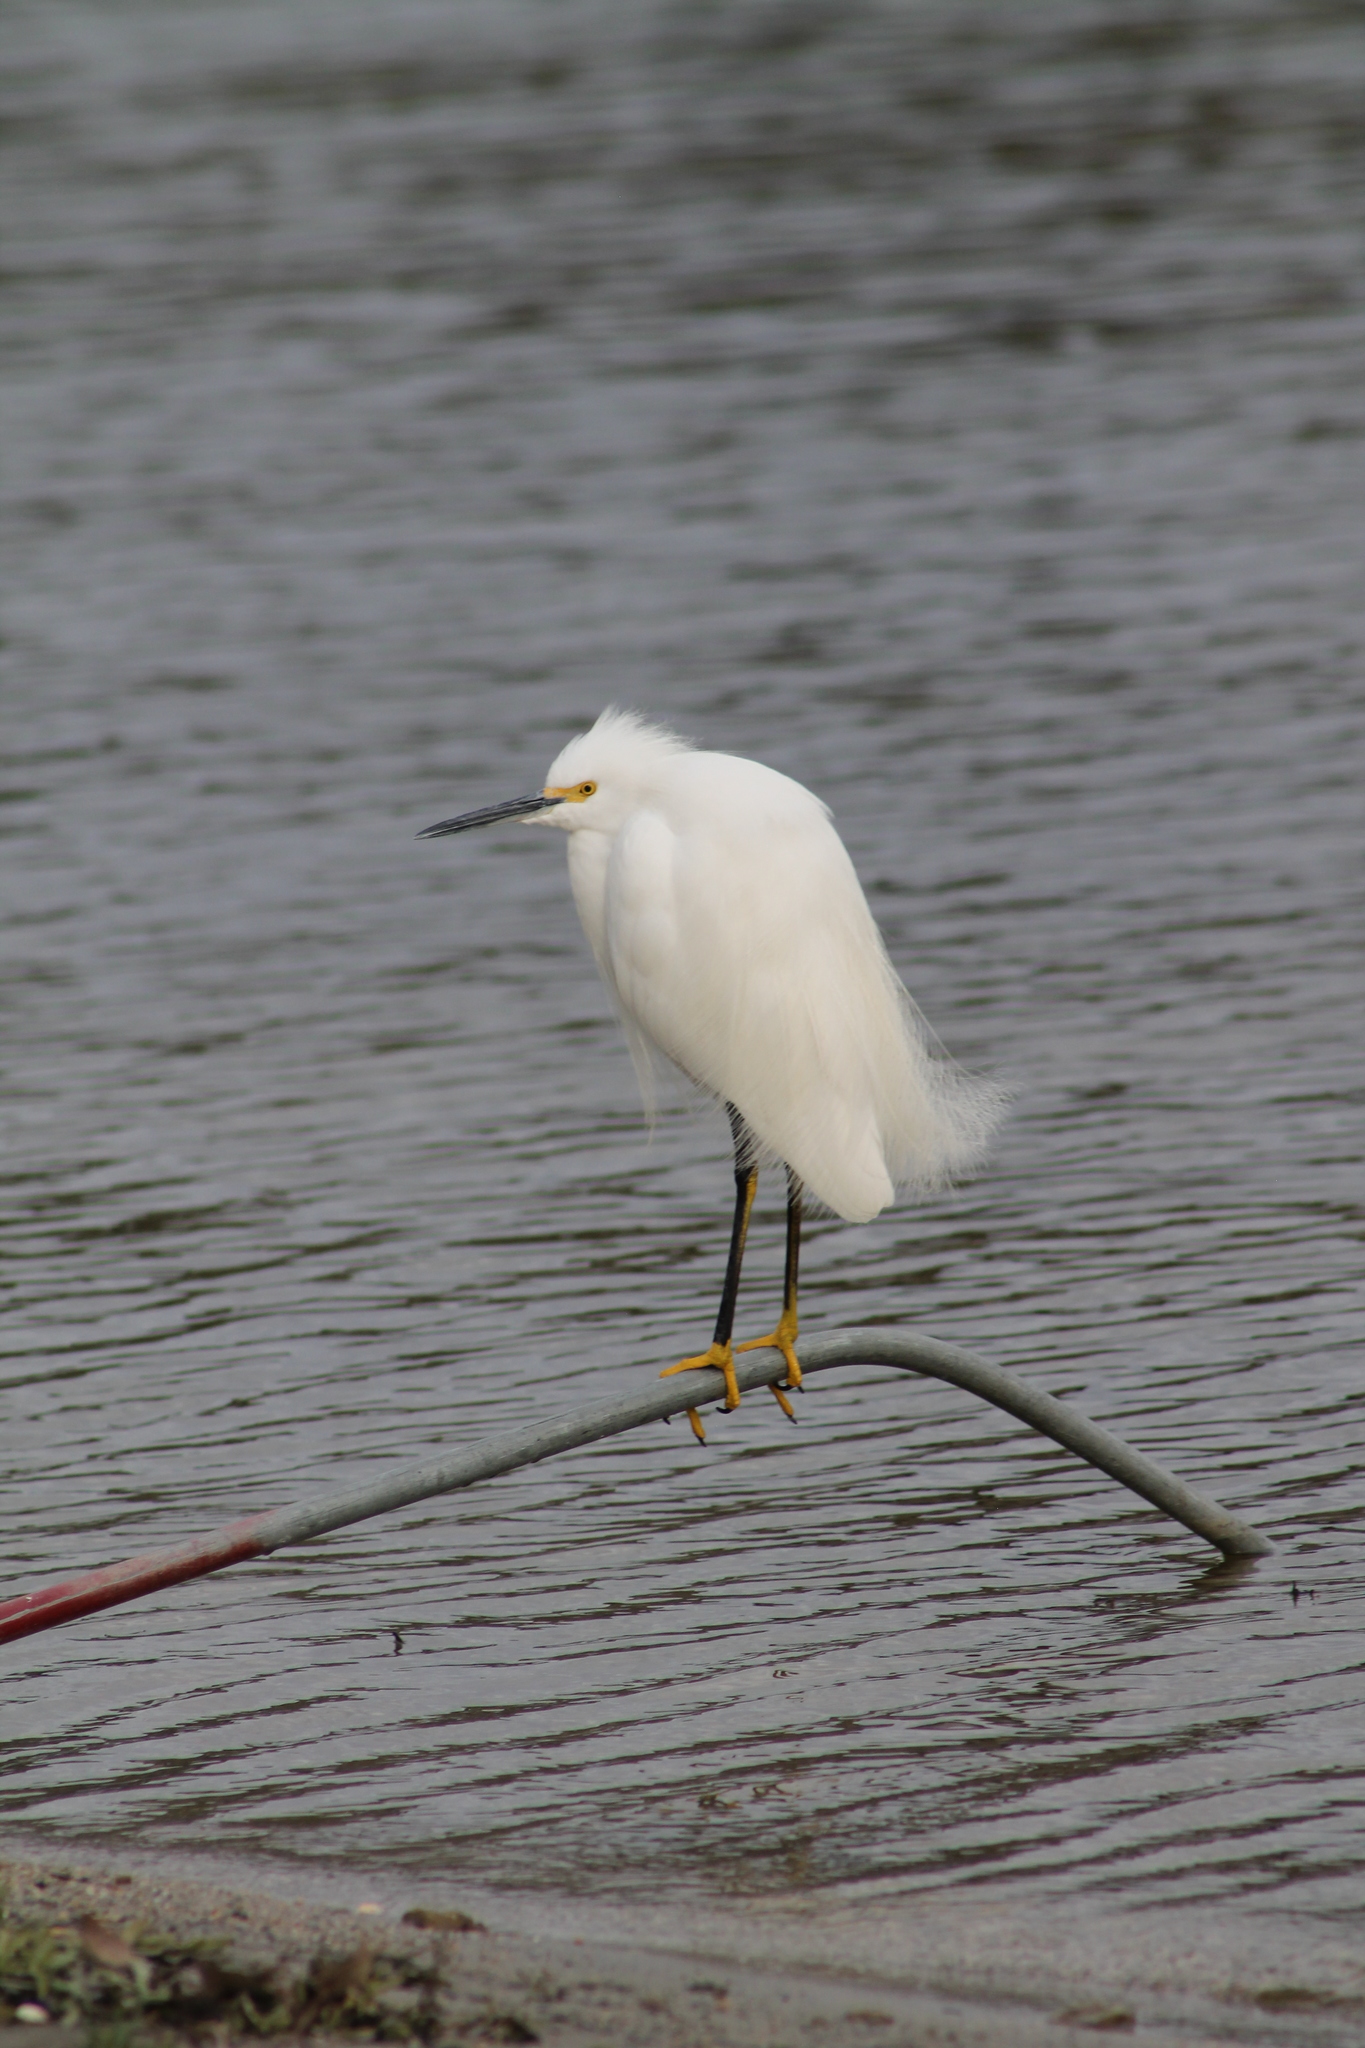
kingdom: Animalia
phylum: Chordata
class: Aves
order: Pelecaniformes
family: Ardeidae
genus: Egretta
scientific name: Egretta thula
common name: Snowy egret
